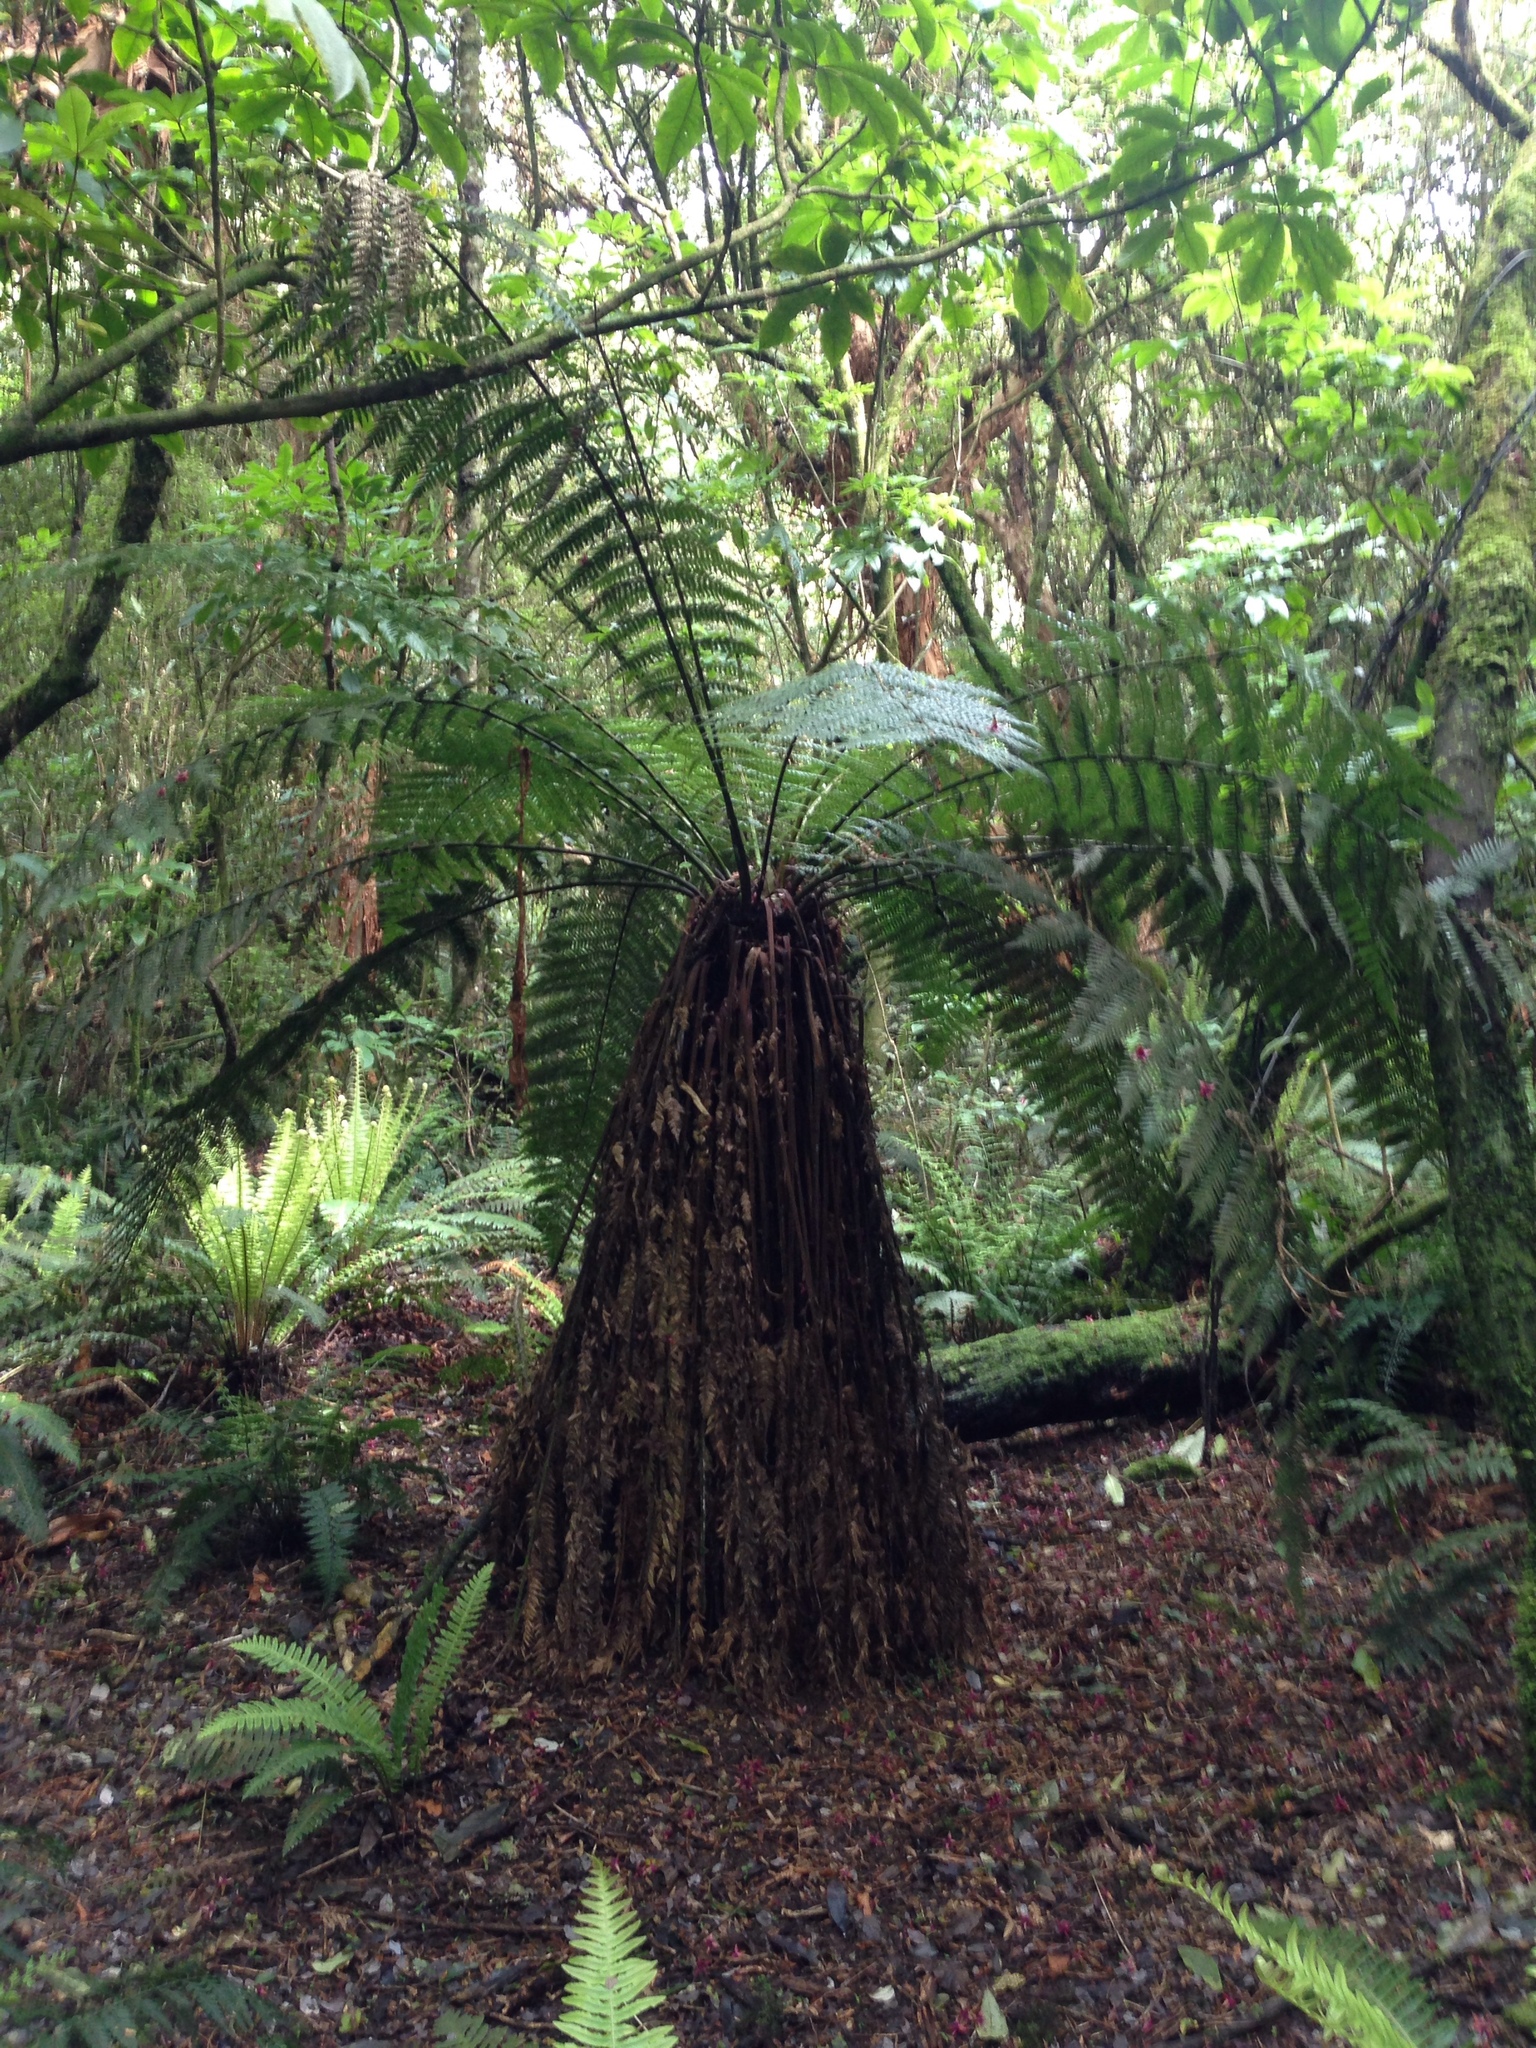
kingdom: Plantae
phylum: Tracheophyta
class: Polypodiopsida
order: Cyatheales
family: Dicksoniaceae
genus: Dicksonia
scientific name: Dicksonia fibrosa
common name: Golden tree fern
